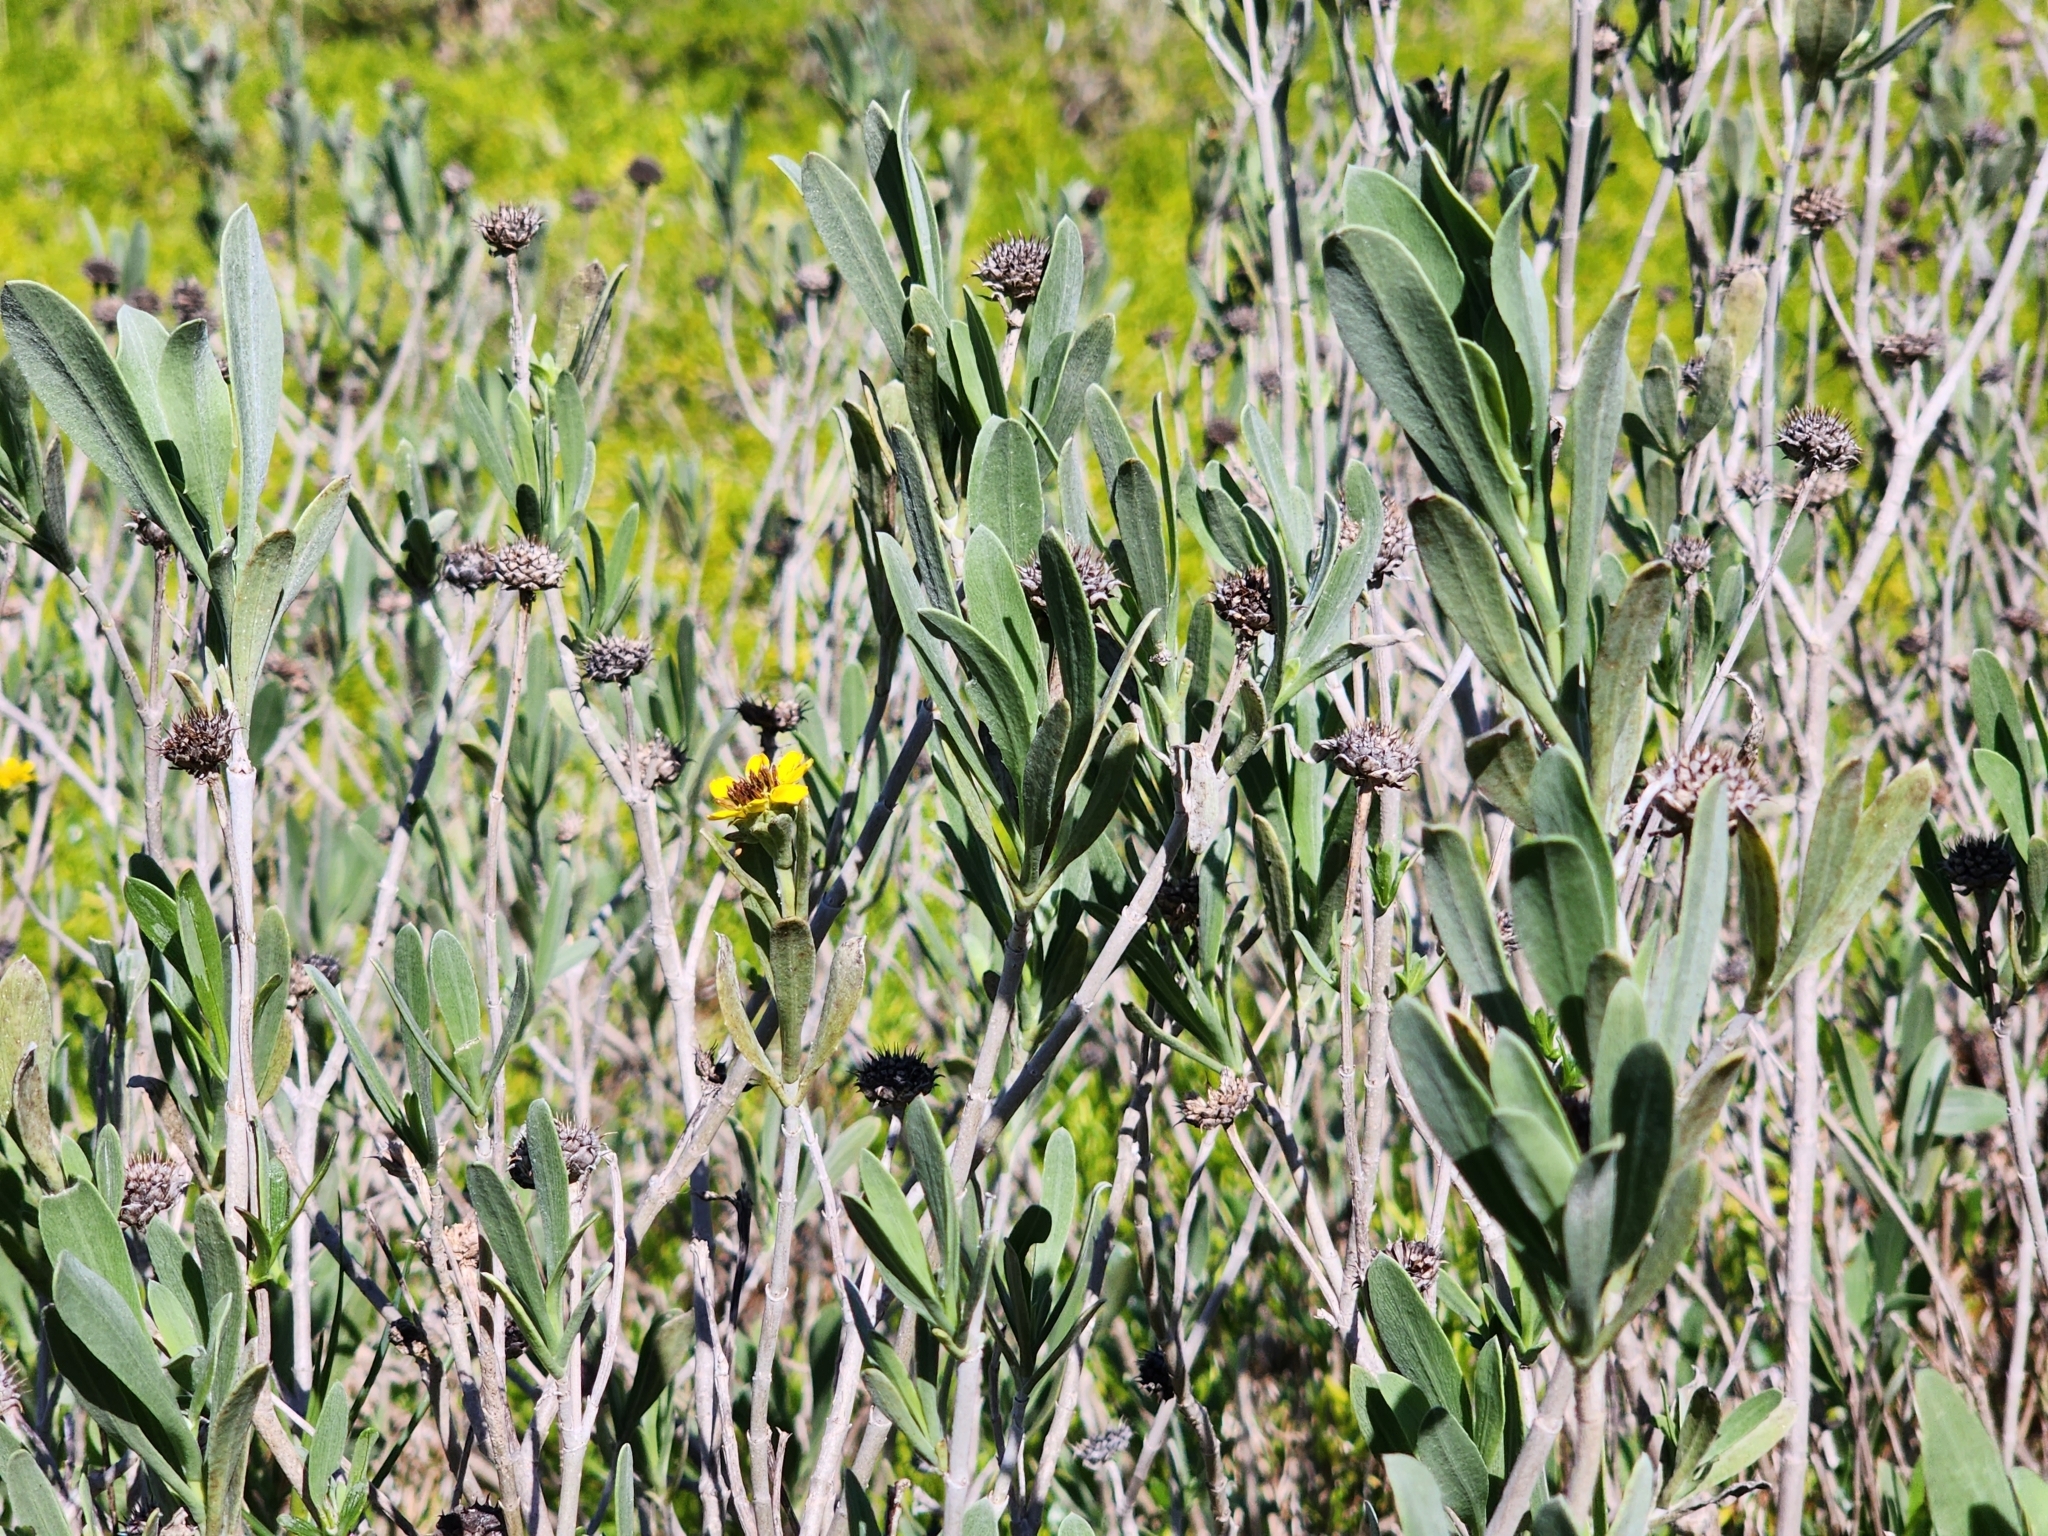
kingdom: Plantae
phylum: Tracheophyta
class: Magnoliopsida
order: Asterales
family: Asteraceae
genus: Borrichia
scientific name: Borrichia frutescens
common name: Sea oxeye
